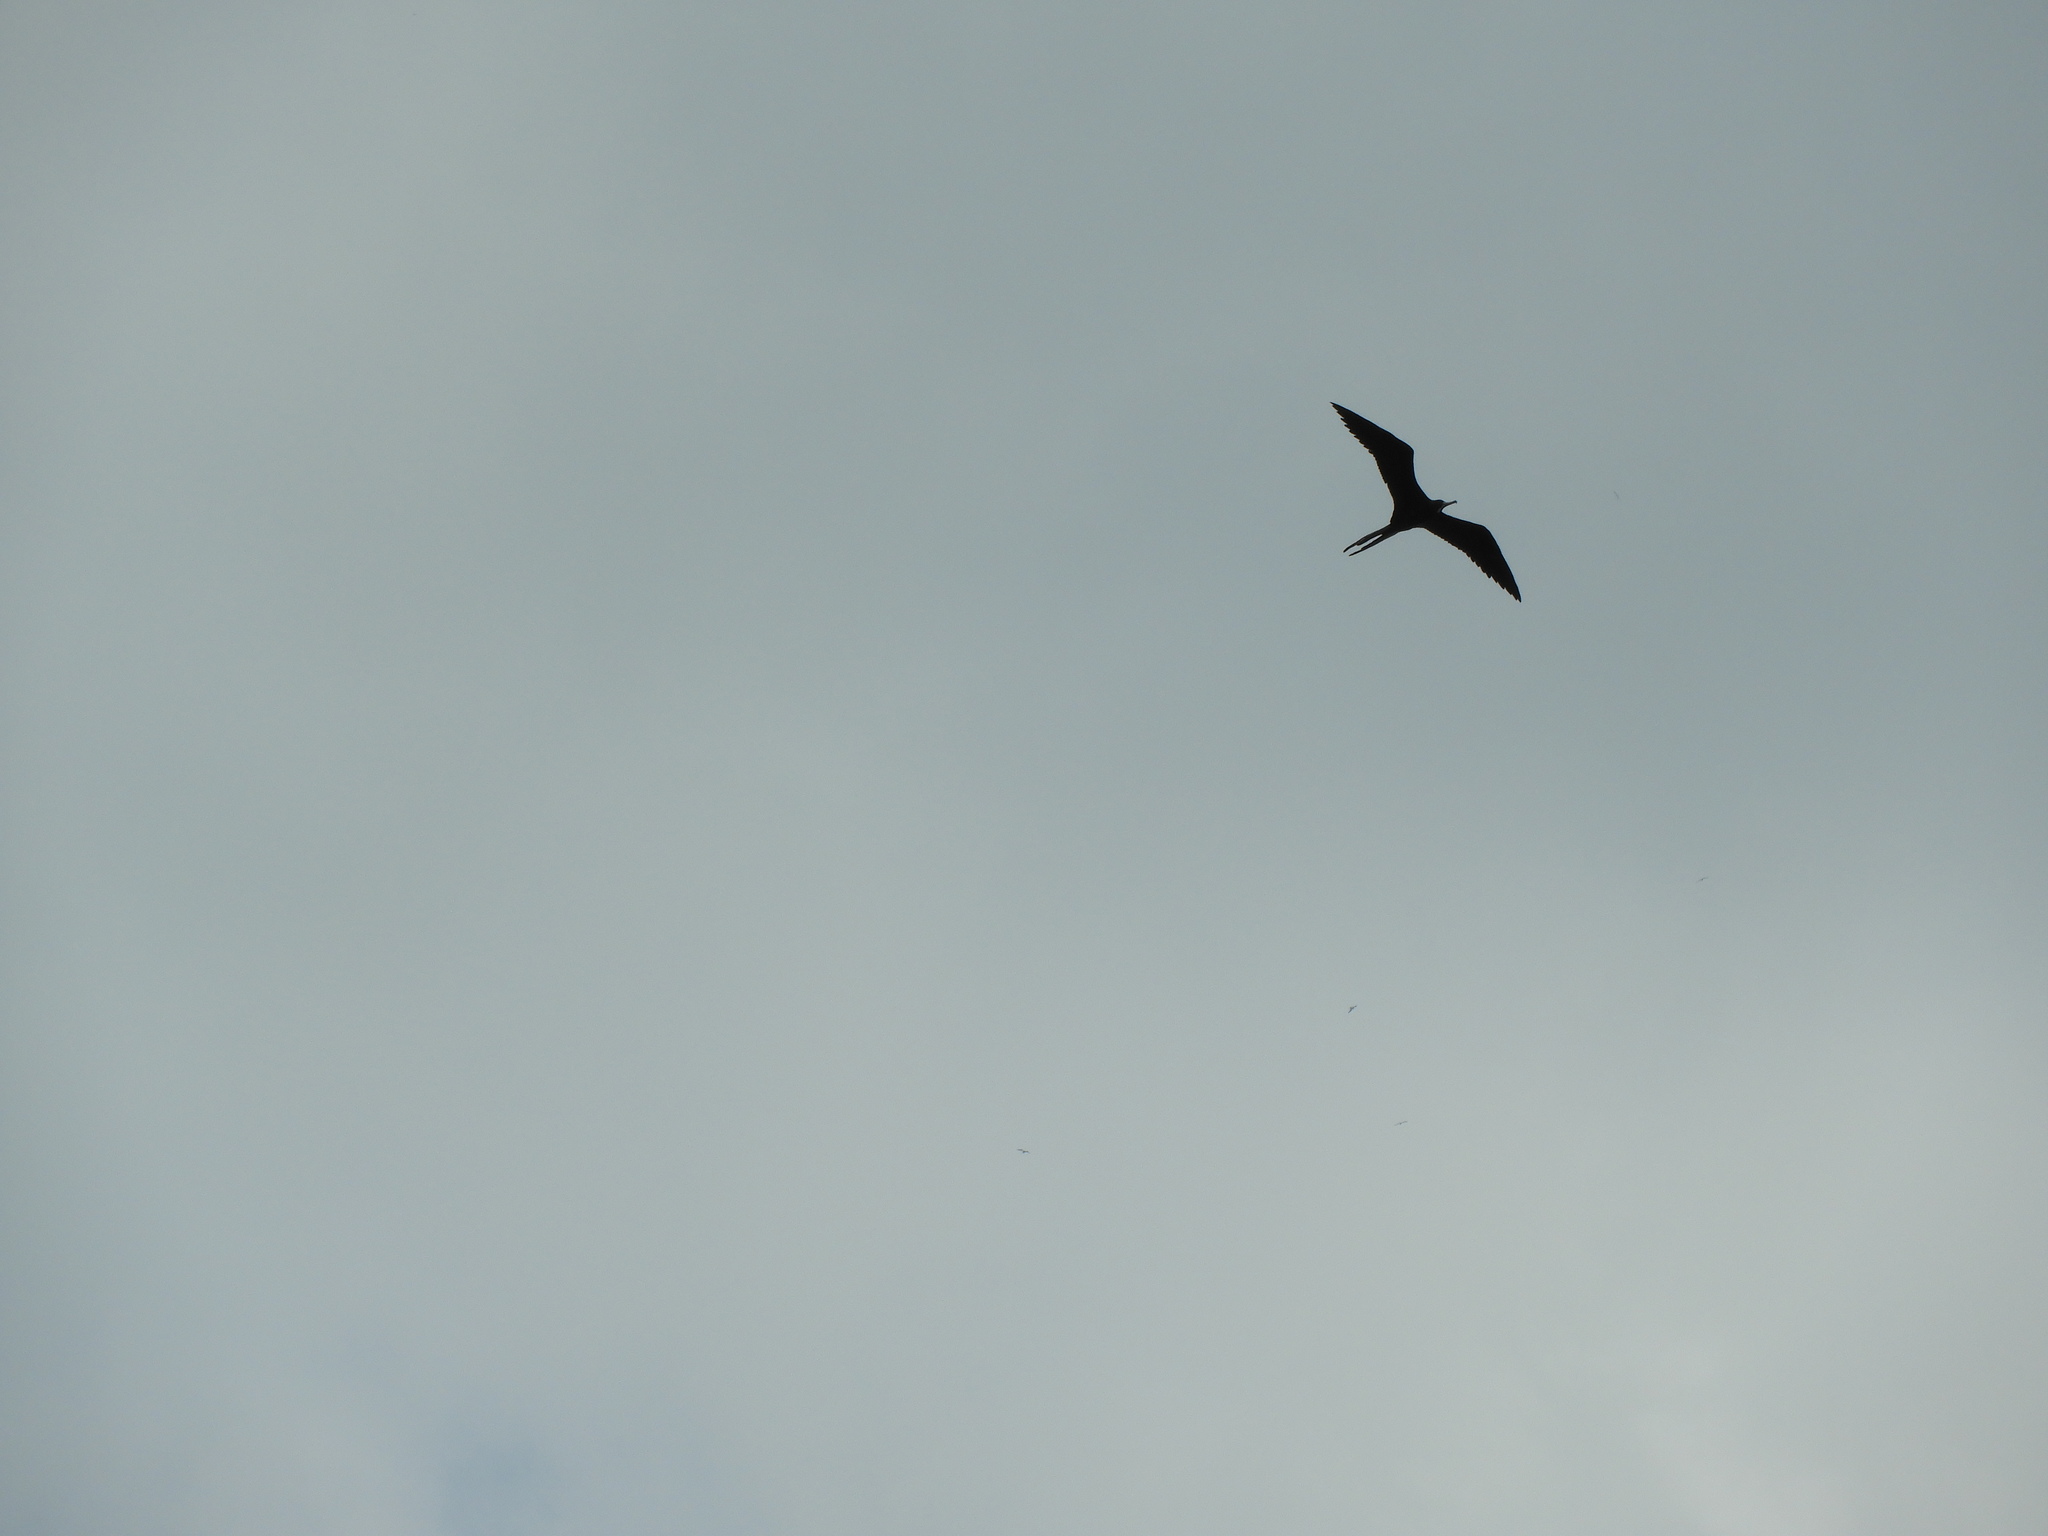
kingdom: Animalia
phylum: Chordata
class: Aves
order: Suliformes
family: Fregatidae
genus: Fregata
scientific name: Fregata magnificens
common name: Magnificent frigatebird
